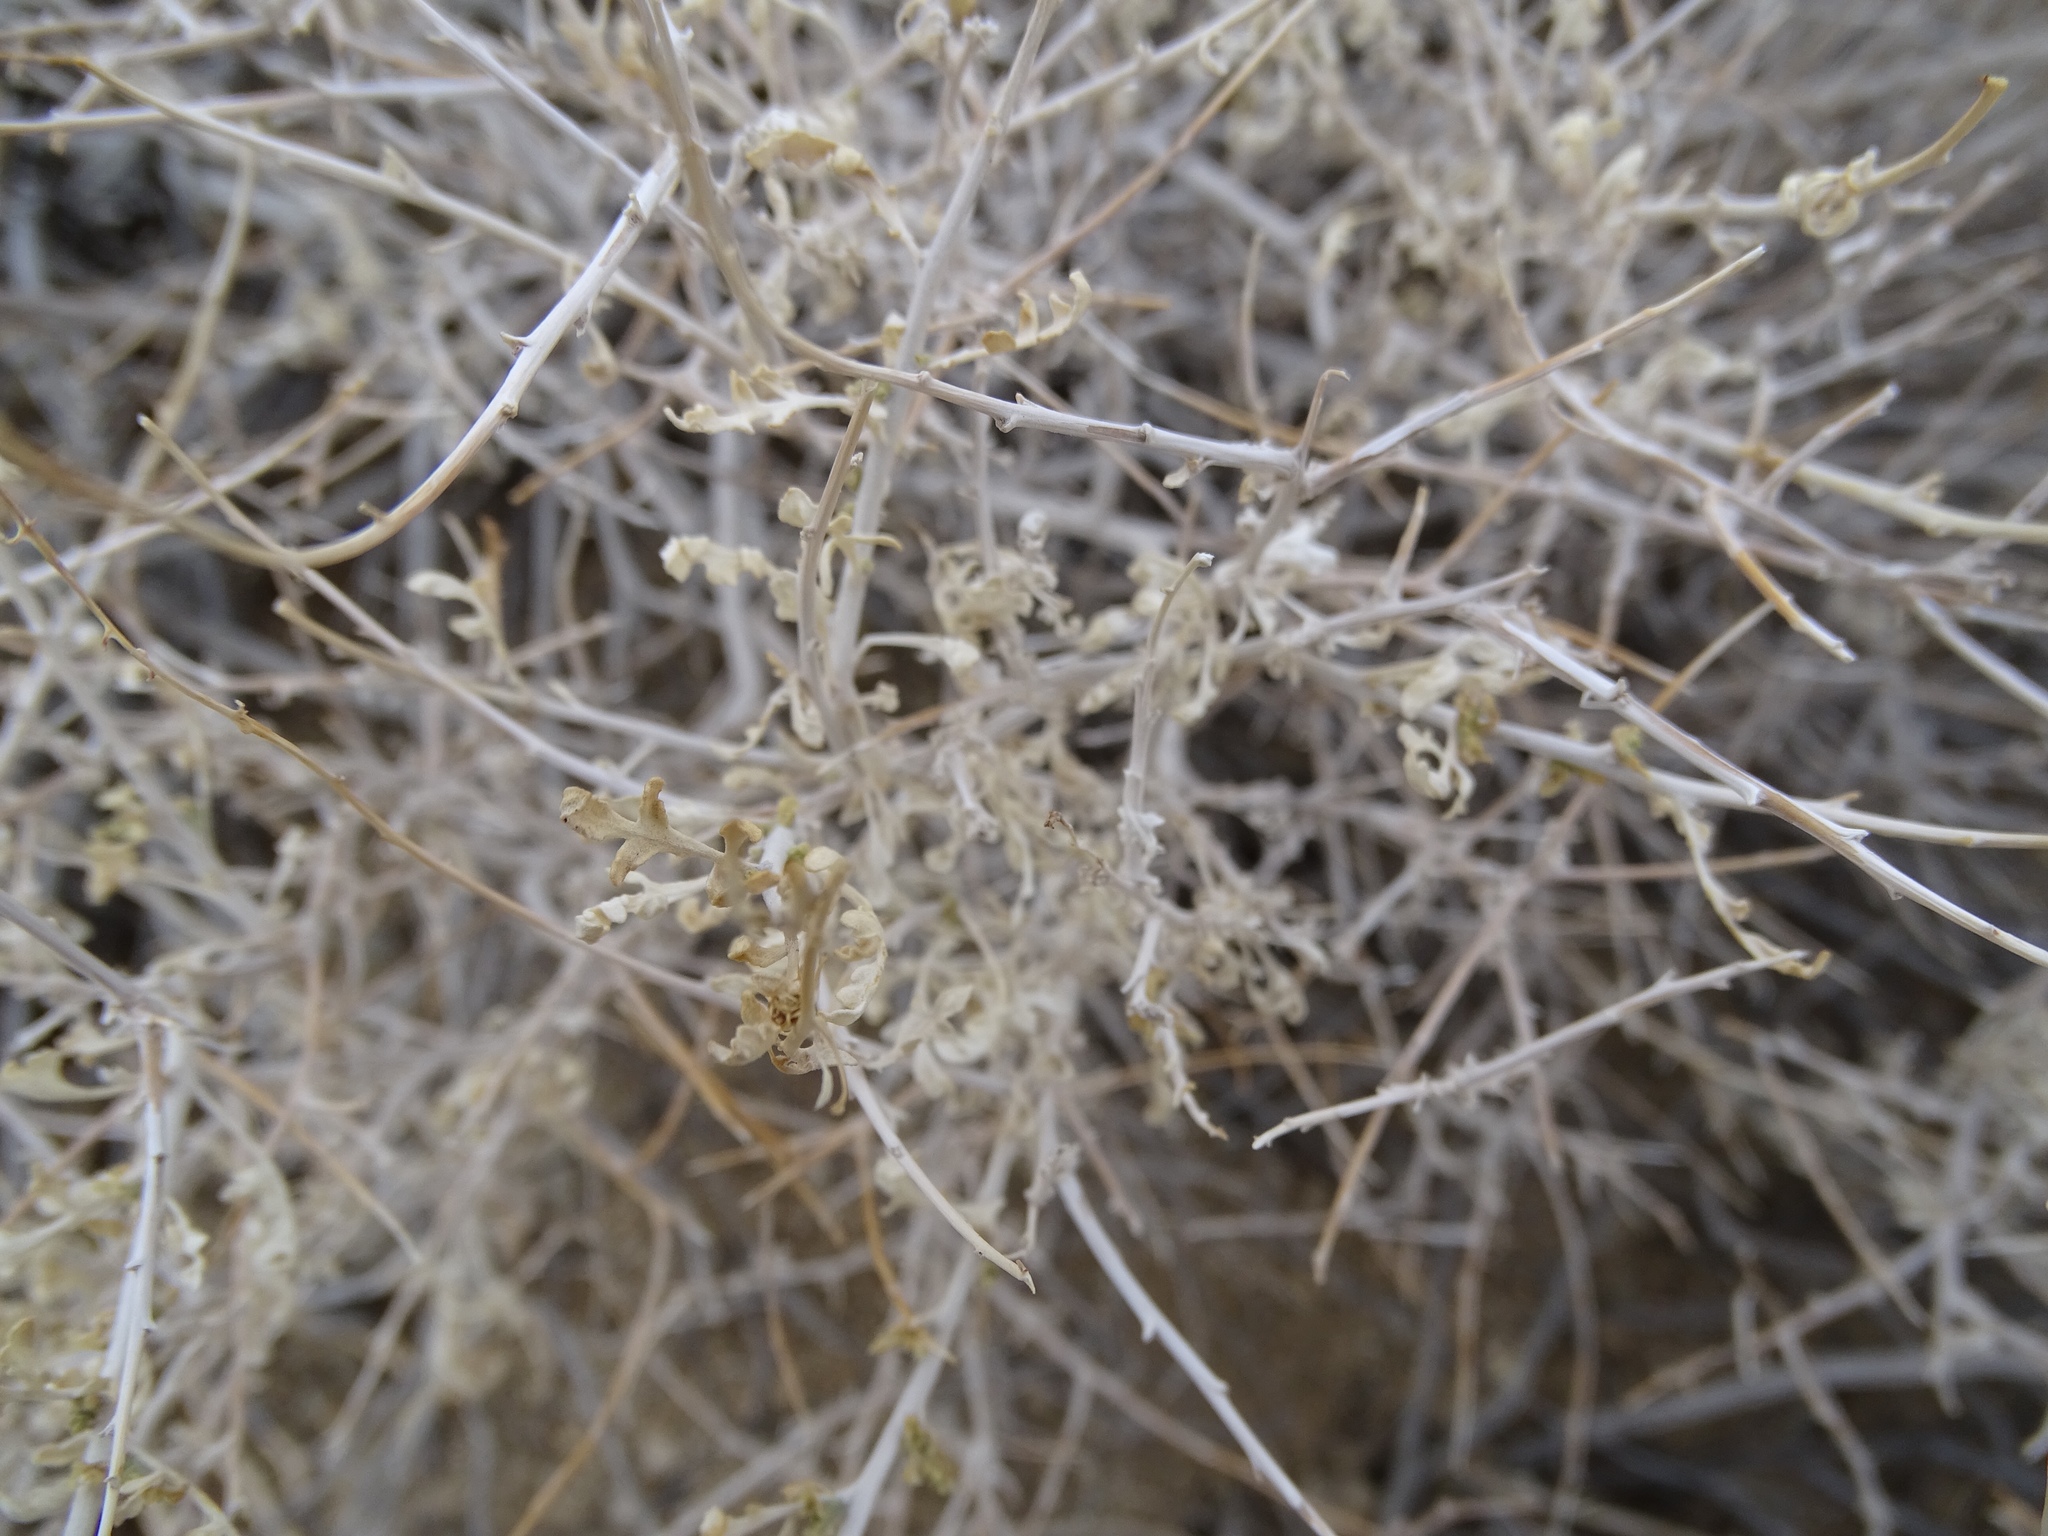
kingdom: Plantae
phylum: Tracheophyta
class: Magnoliopsida
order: Asterales
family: Asteraceae
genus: Ambrosia
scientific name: Ambrosia dumosa
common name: Bur-sage
